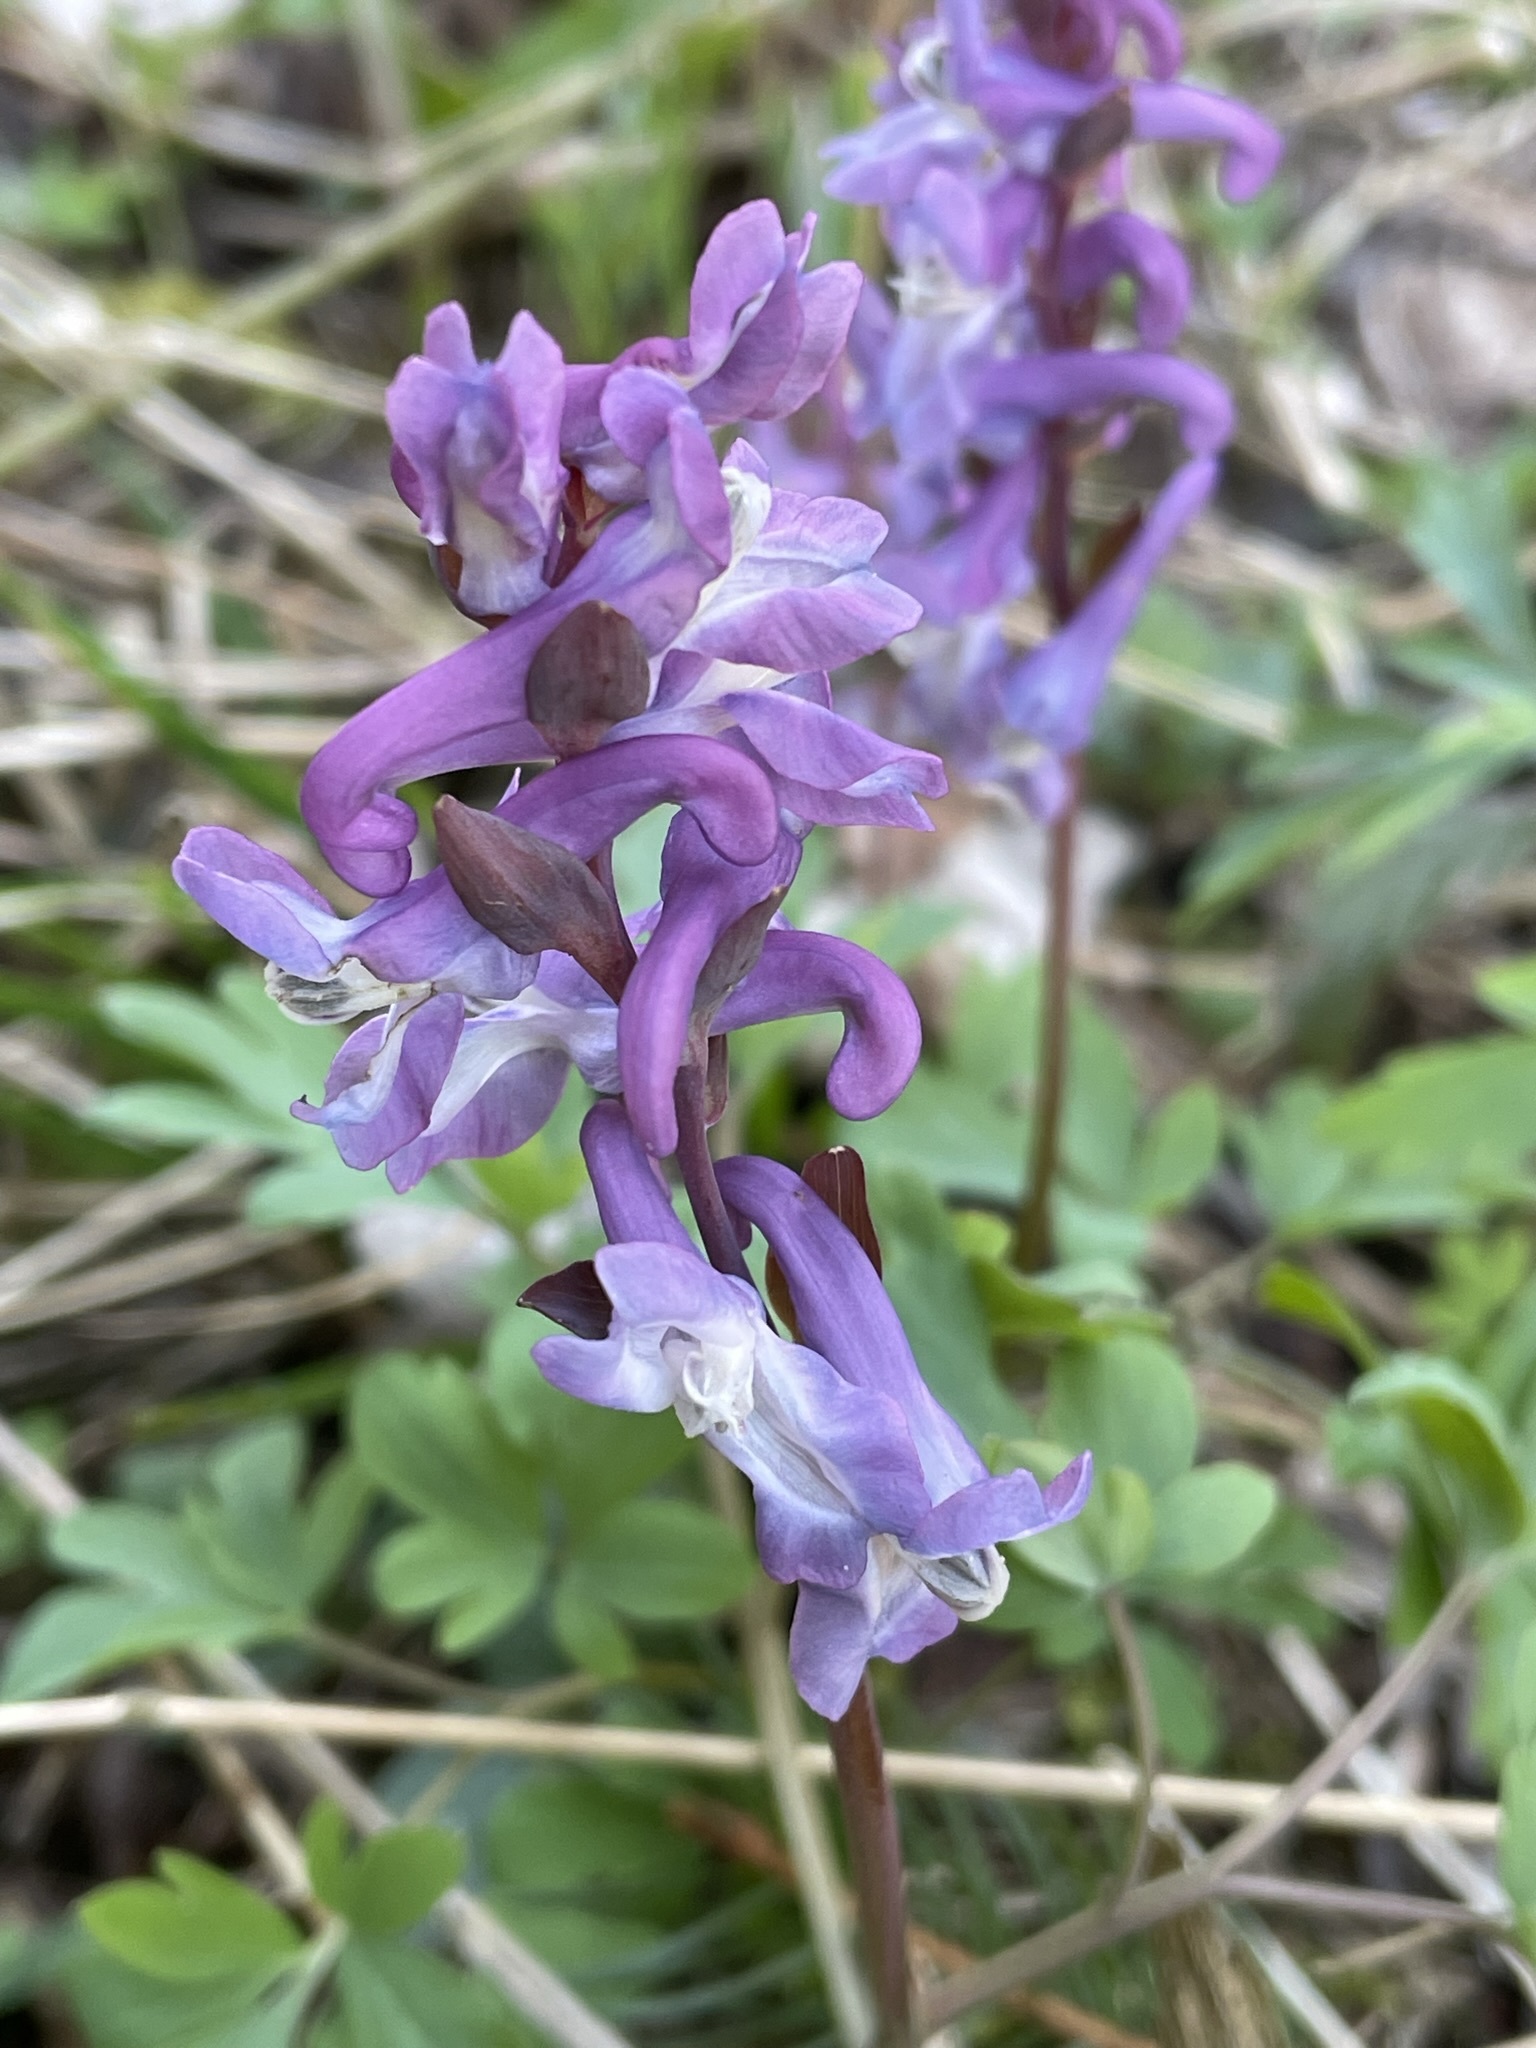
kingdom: Plantae
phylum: Tracheophyta
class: Magnoliopsida
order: Ranunculales
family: Papaveraceae
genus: Corydalis
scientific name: Corydalis cava
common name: Hollowroot
